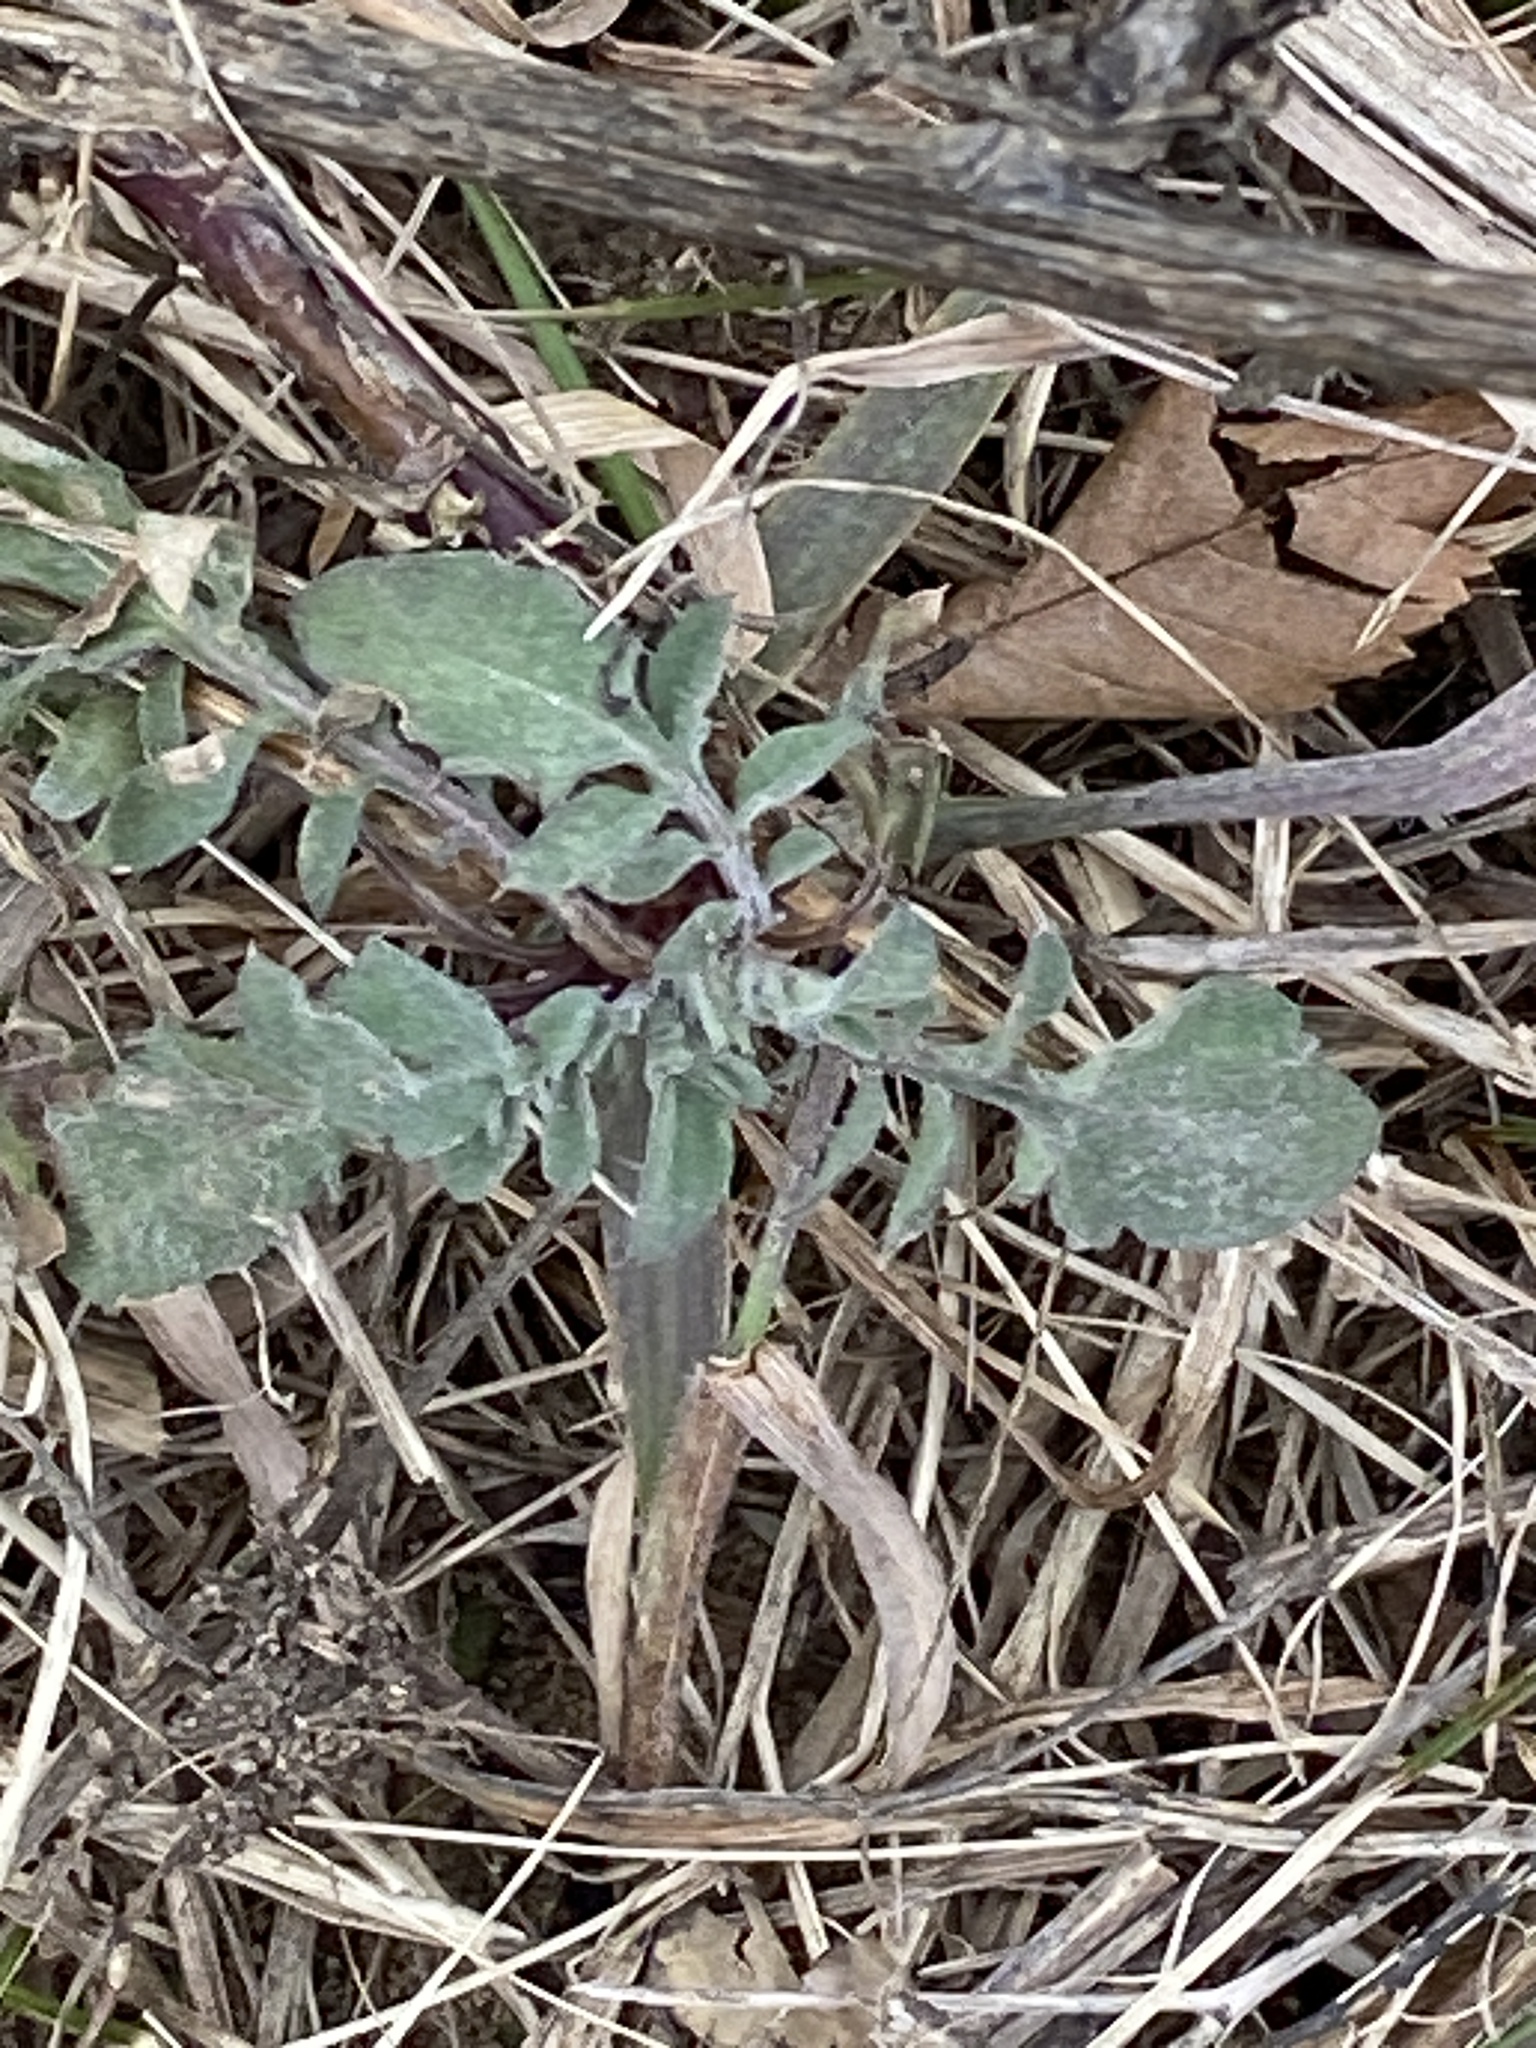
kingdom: Plantae
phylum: Tracheophyta
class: Magnoliopsida
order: Asterales
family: Asteraceae
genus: Centaurea
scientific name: Centaurea stoebe
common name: Spotted knapweed
